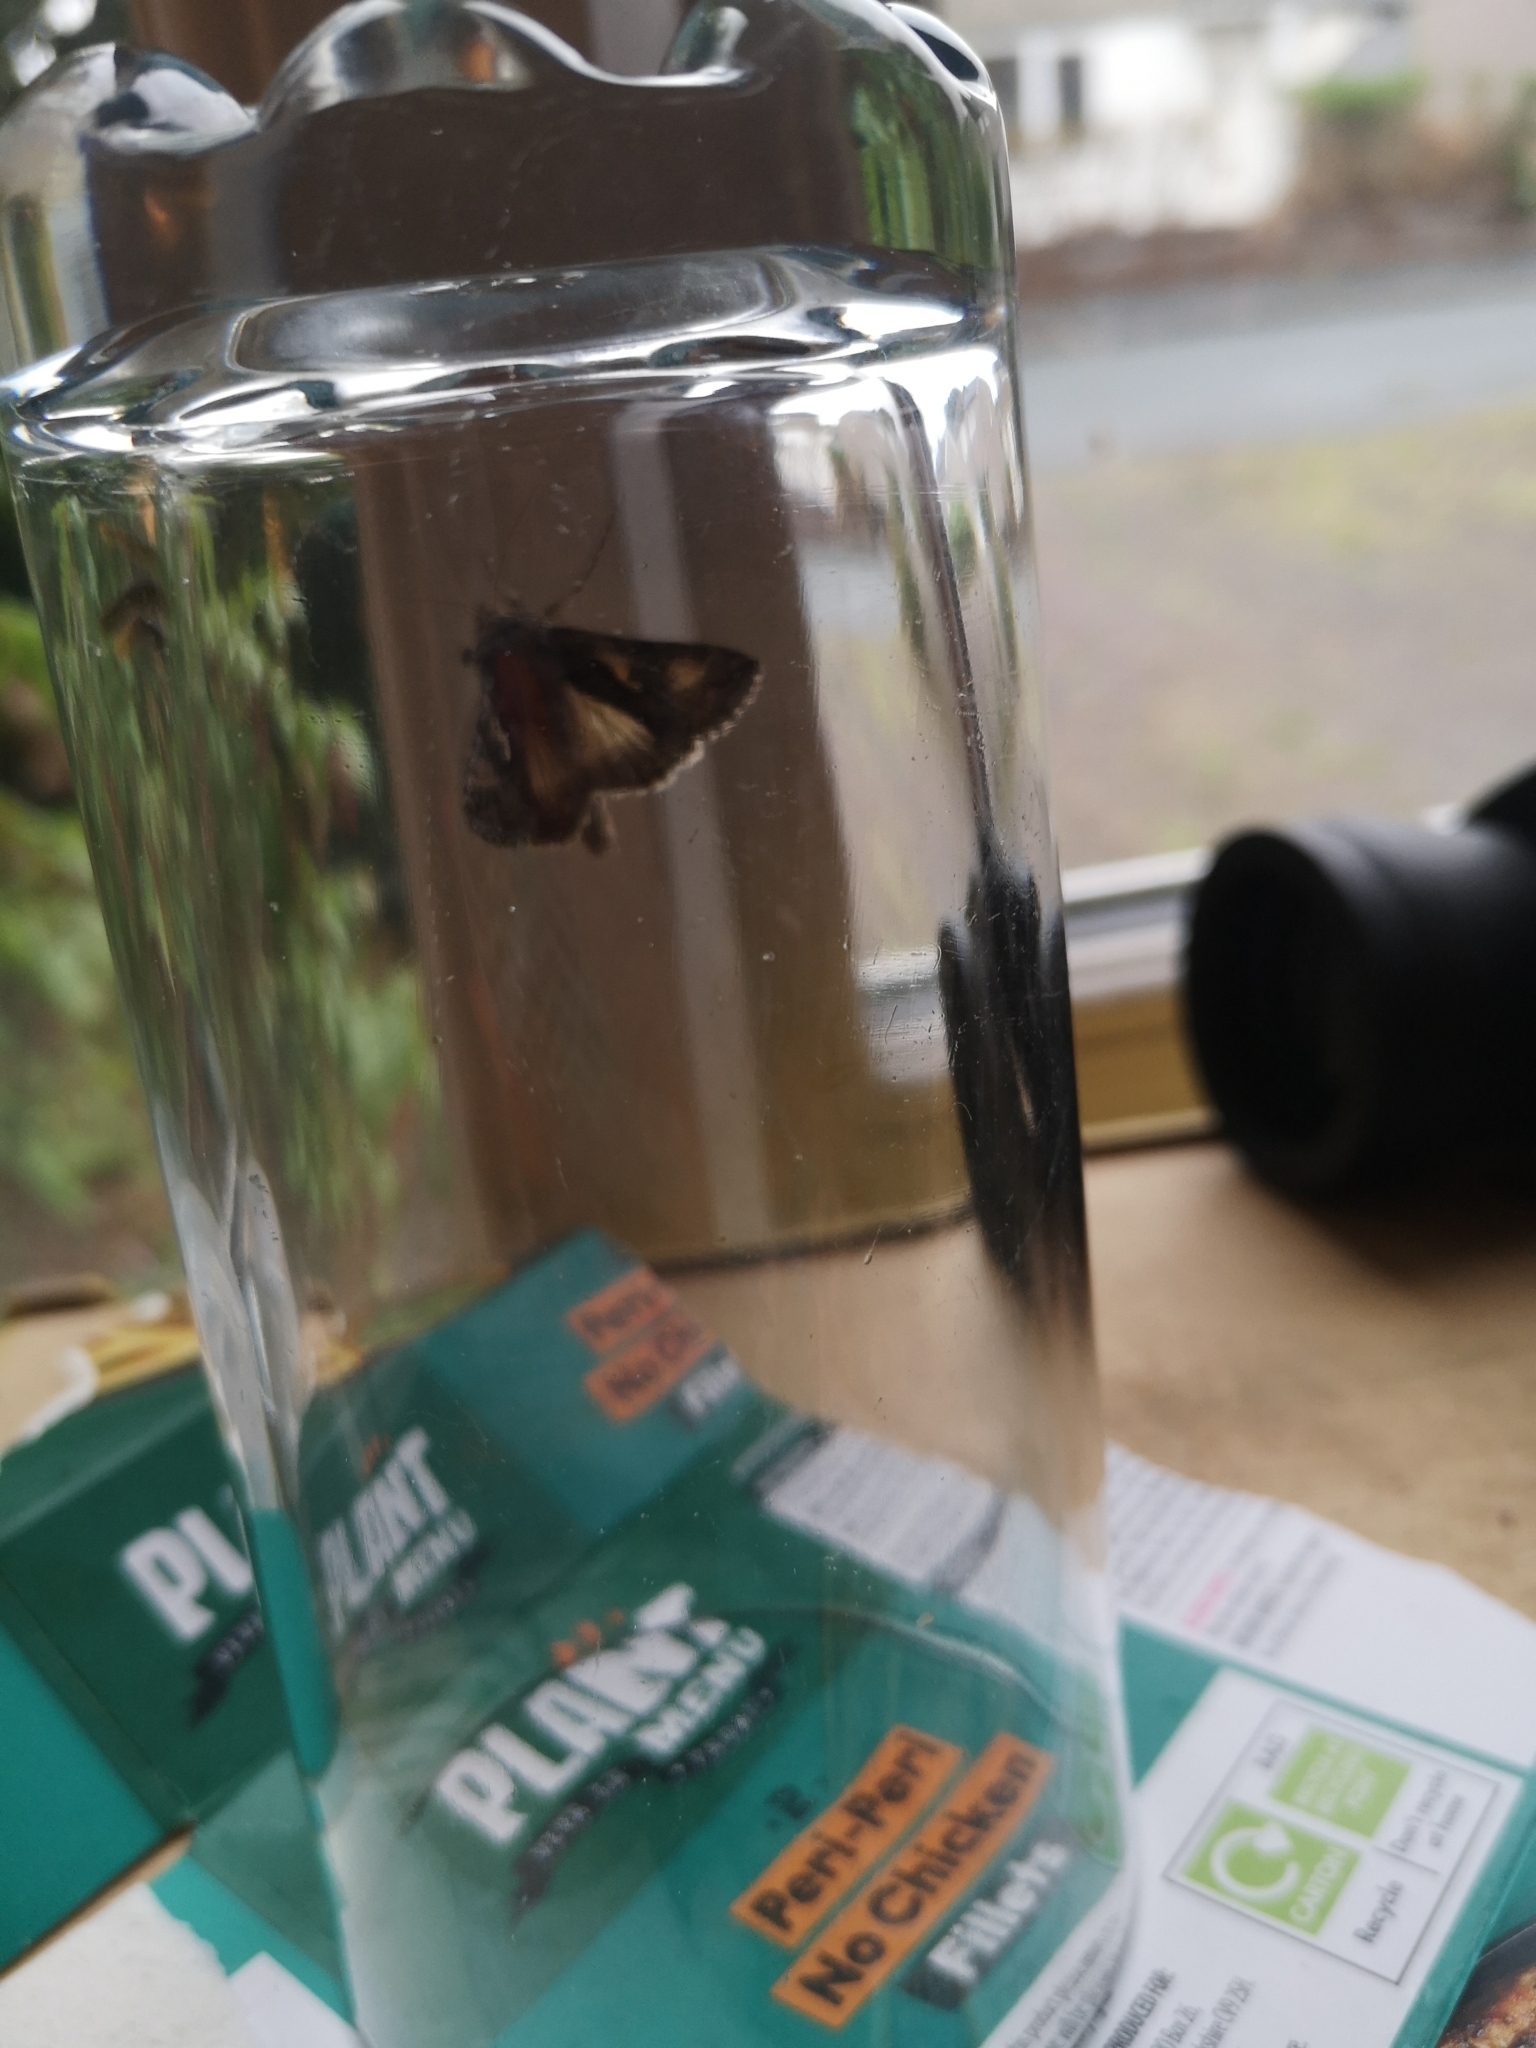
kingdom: Animalia
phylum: Arthropoda
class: Insecta
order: Lepidoptera
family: Noctuidae
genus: Autographa
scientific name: Autographa gamma
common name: Silver y
